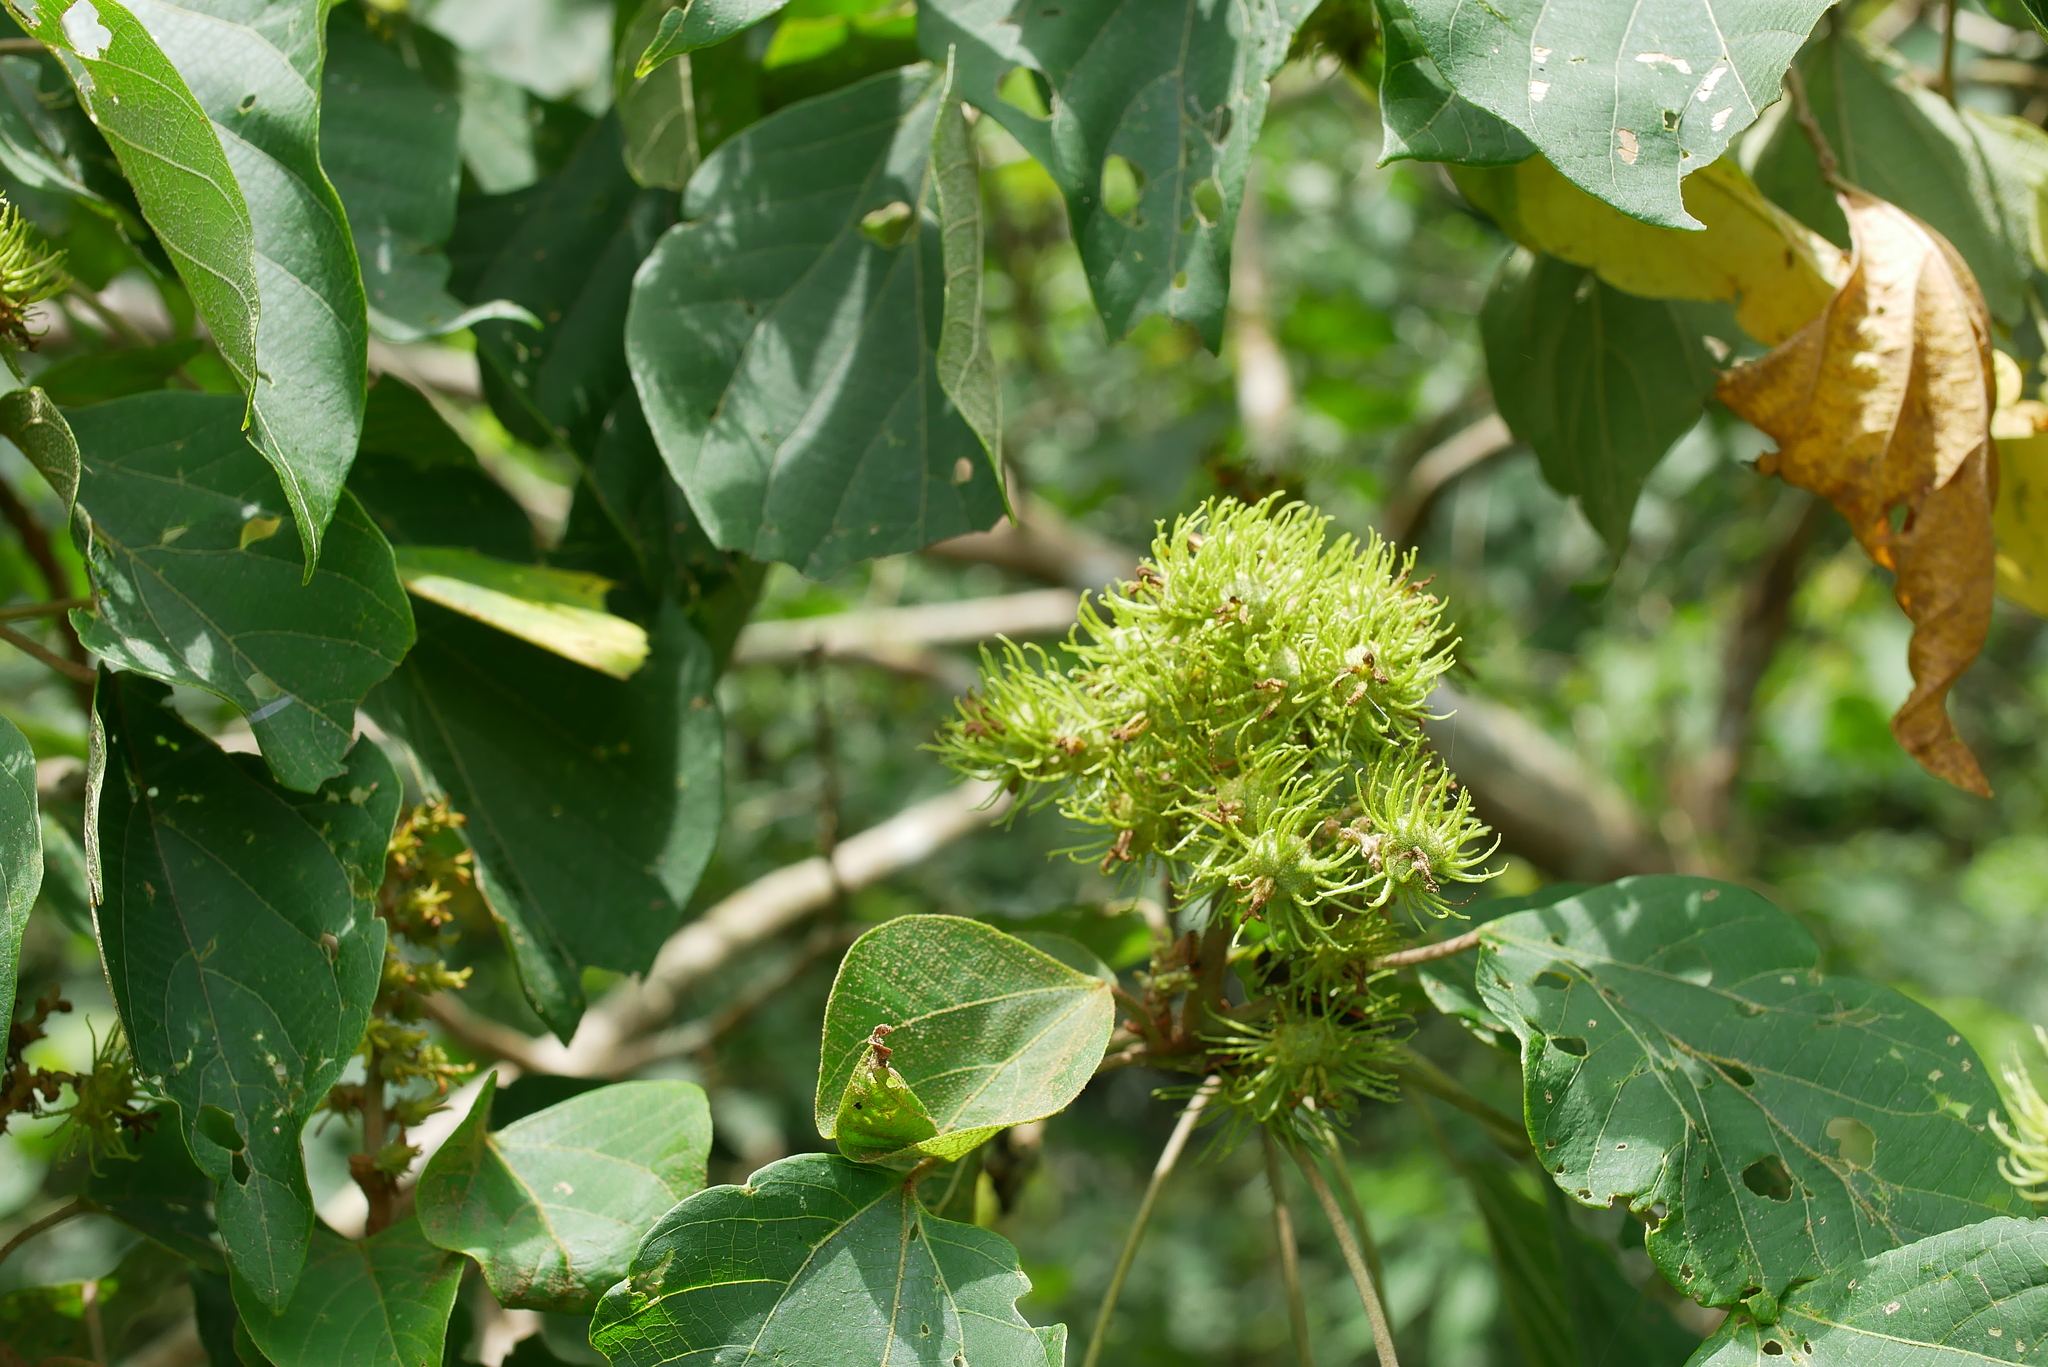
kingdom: Plantae
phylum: Tracheophyta
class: Magnoliopsida
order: Malpighiales
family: Euphorbiaceae
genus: Mallotus
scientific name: Mallotus japonicus
